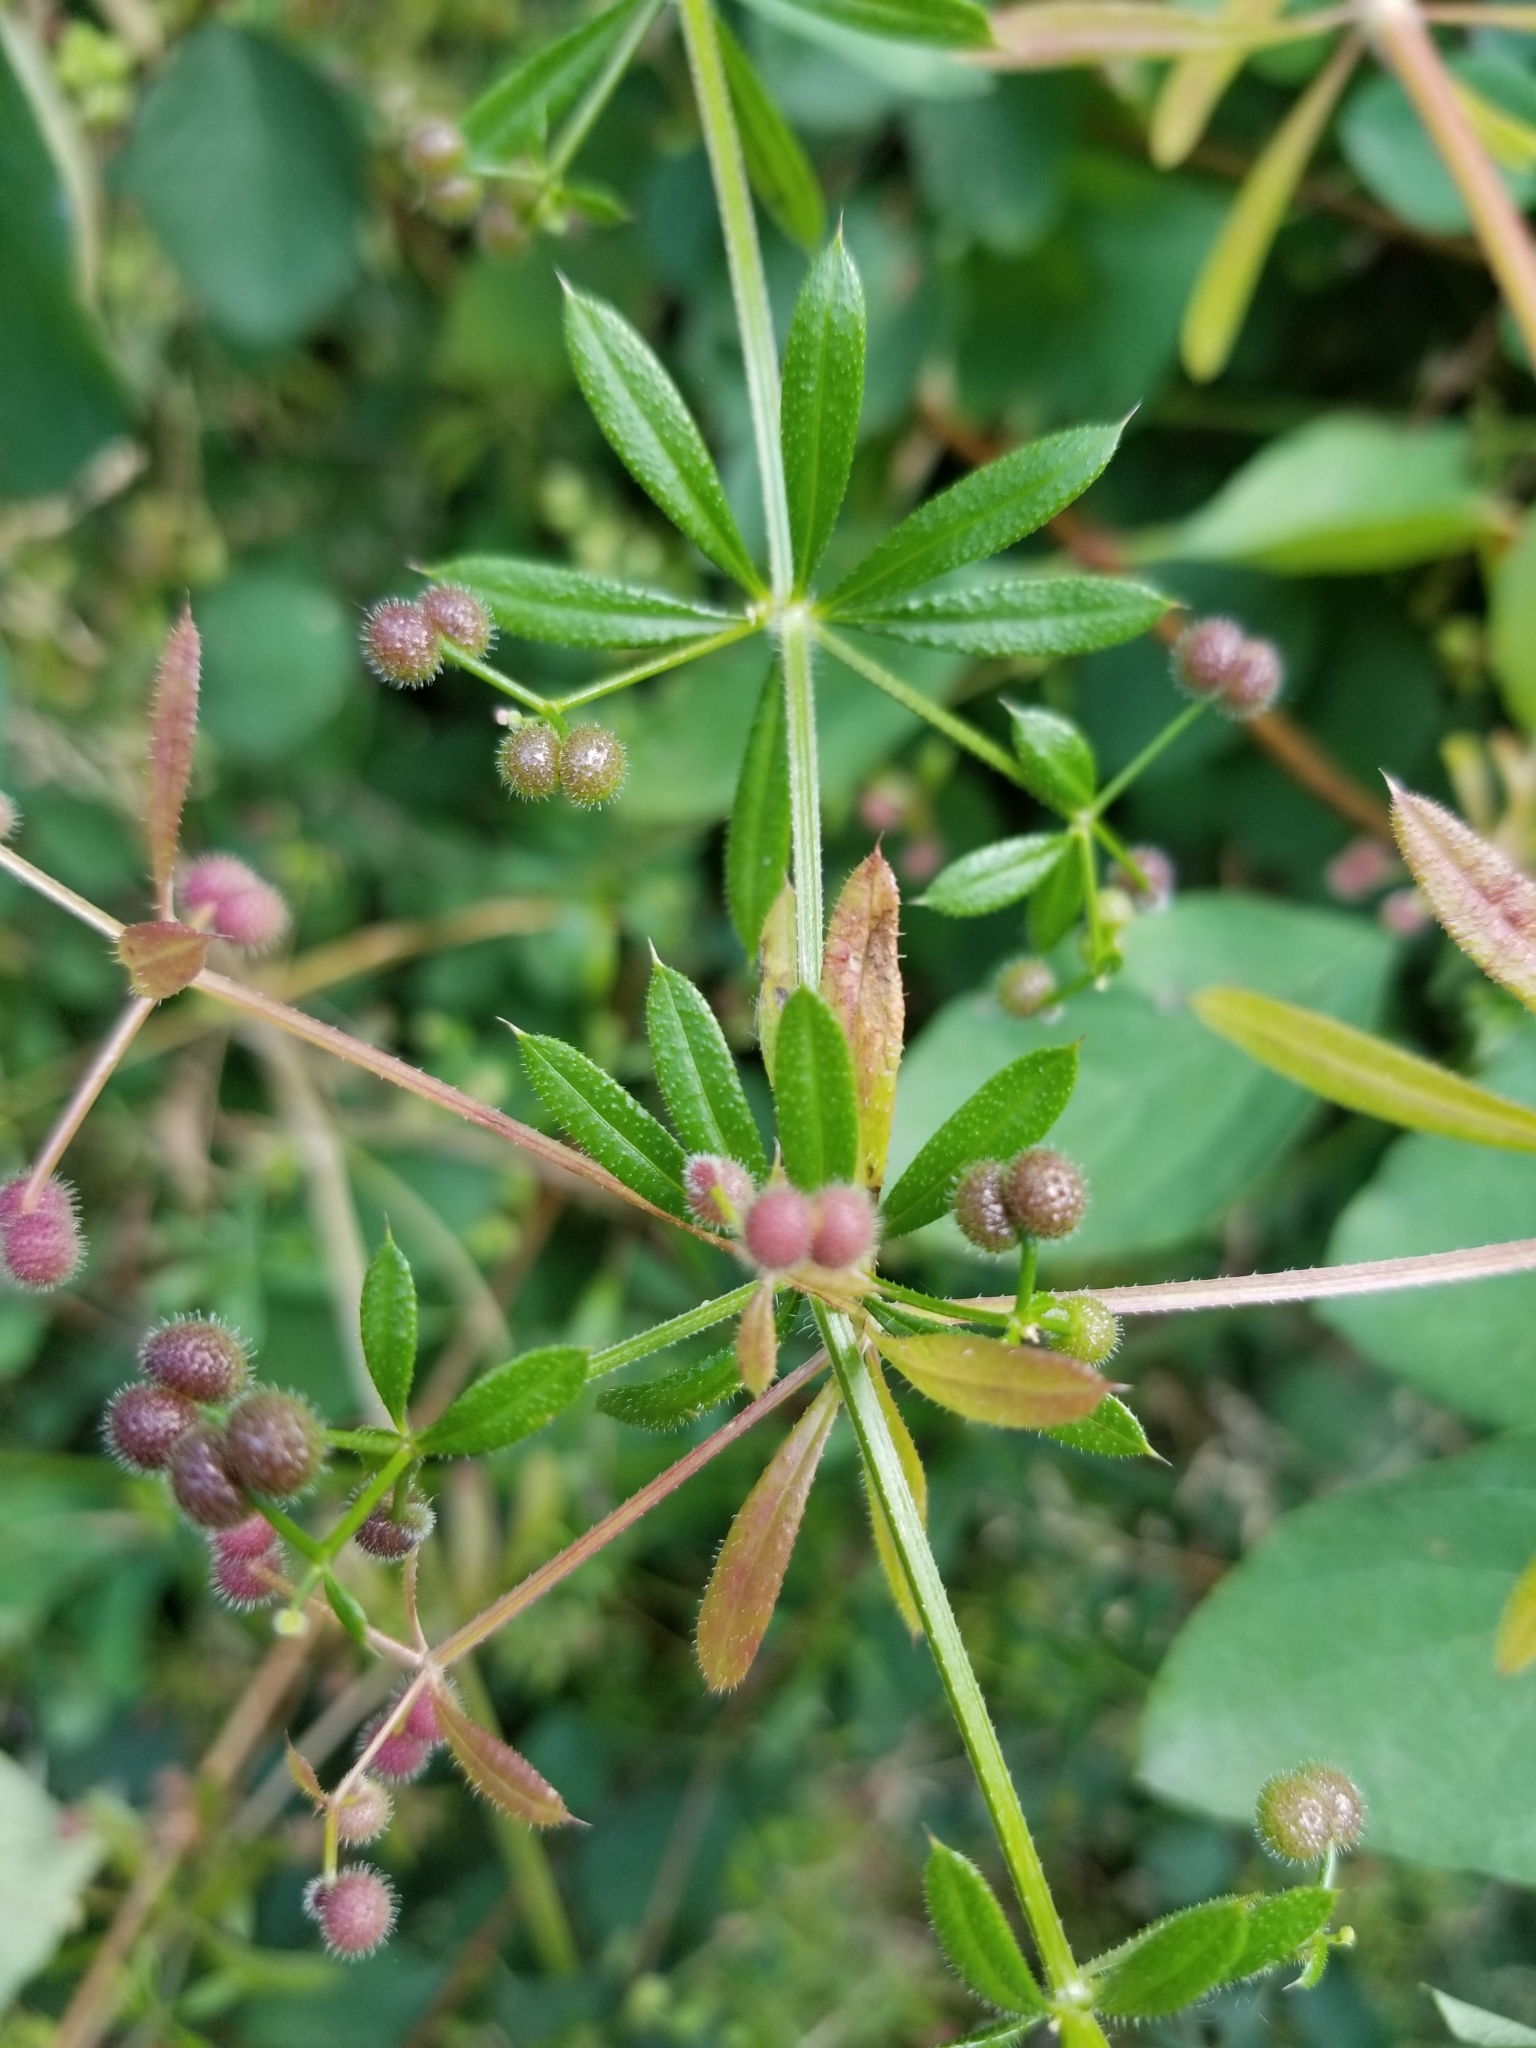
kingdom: Plantae
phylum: Tracheophyta
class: Magnoliopsida
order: Gentianales
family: Rubiaceae
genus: Galium
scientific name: Galium aparine
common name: Cleavers
